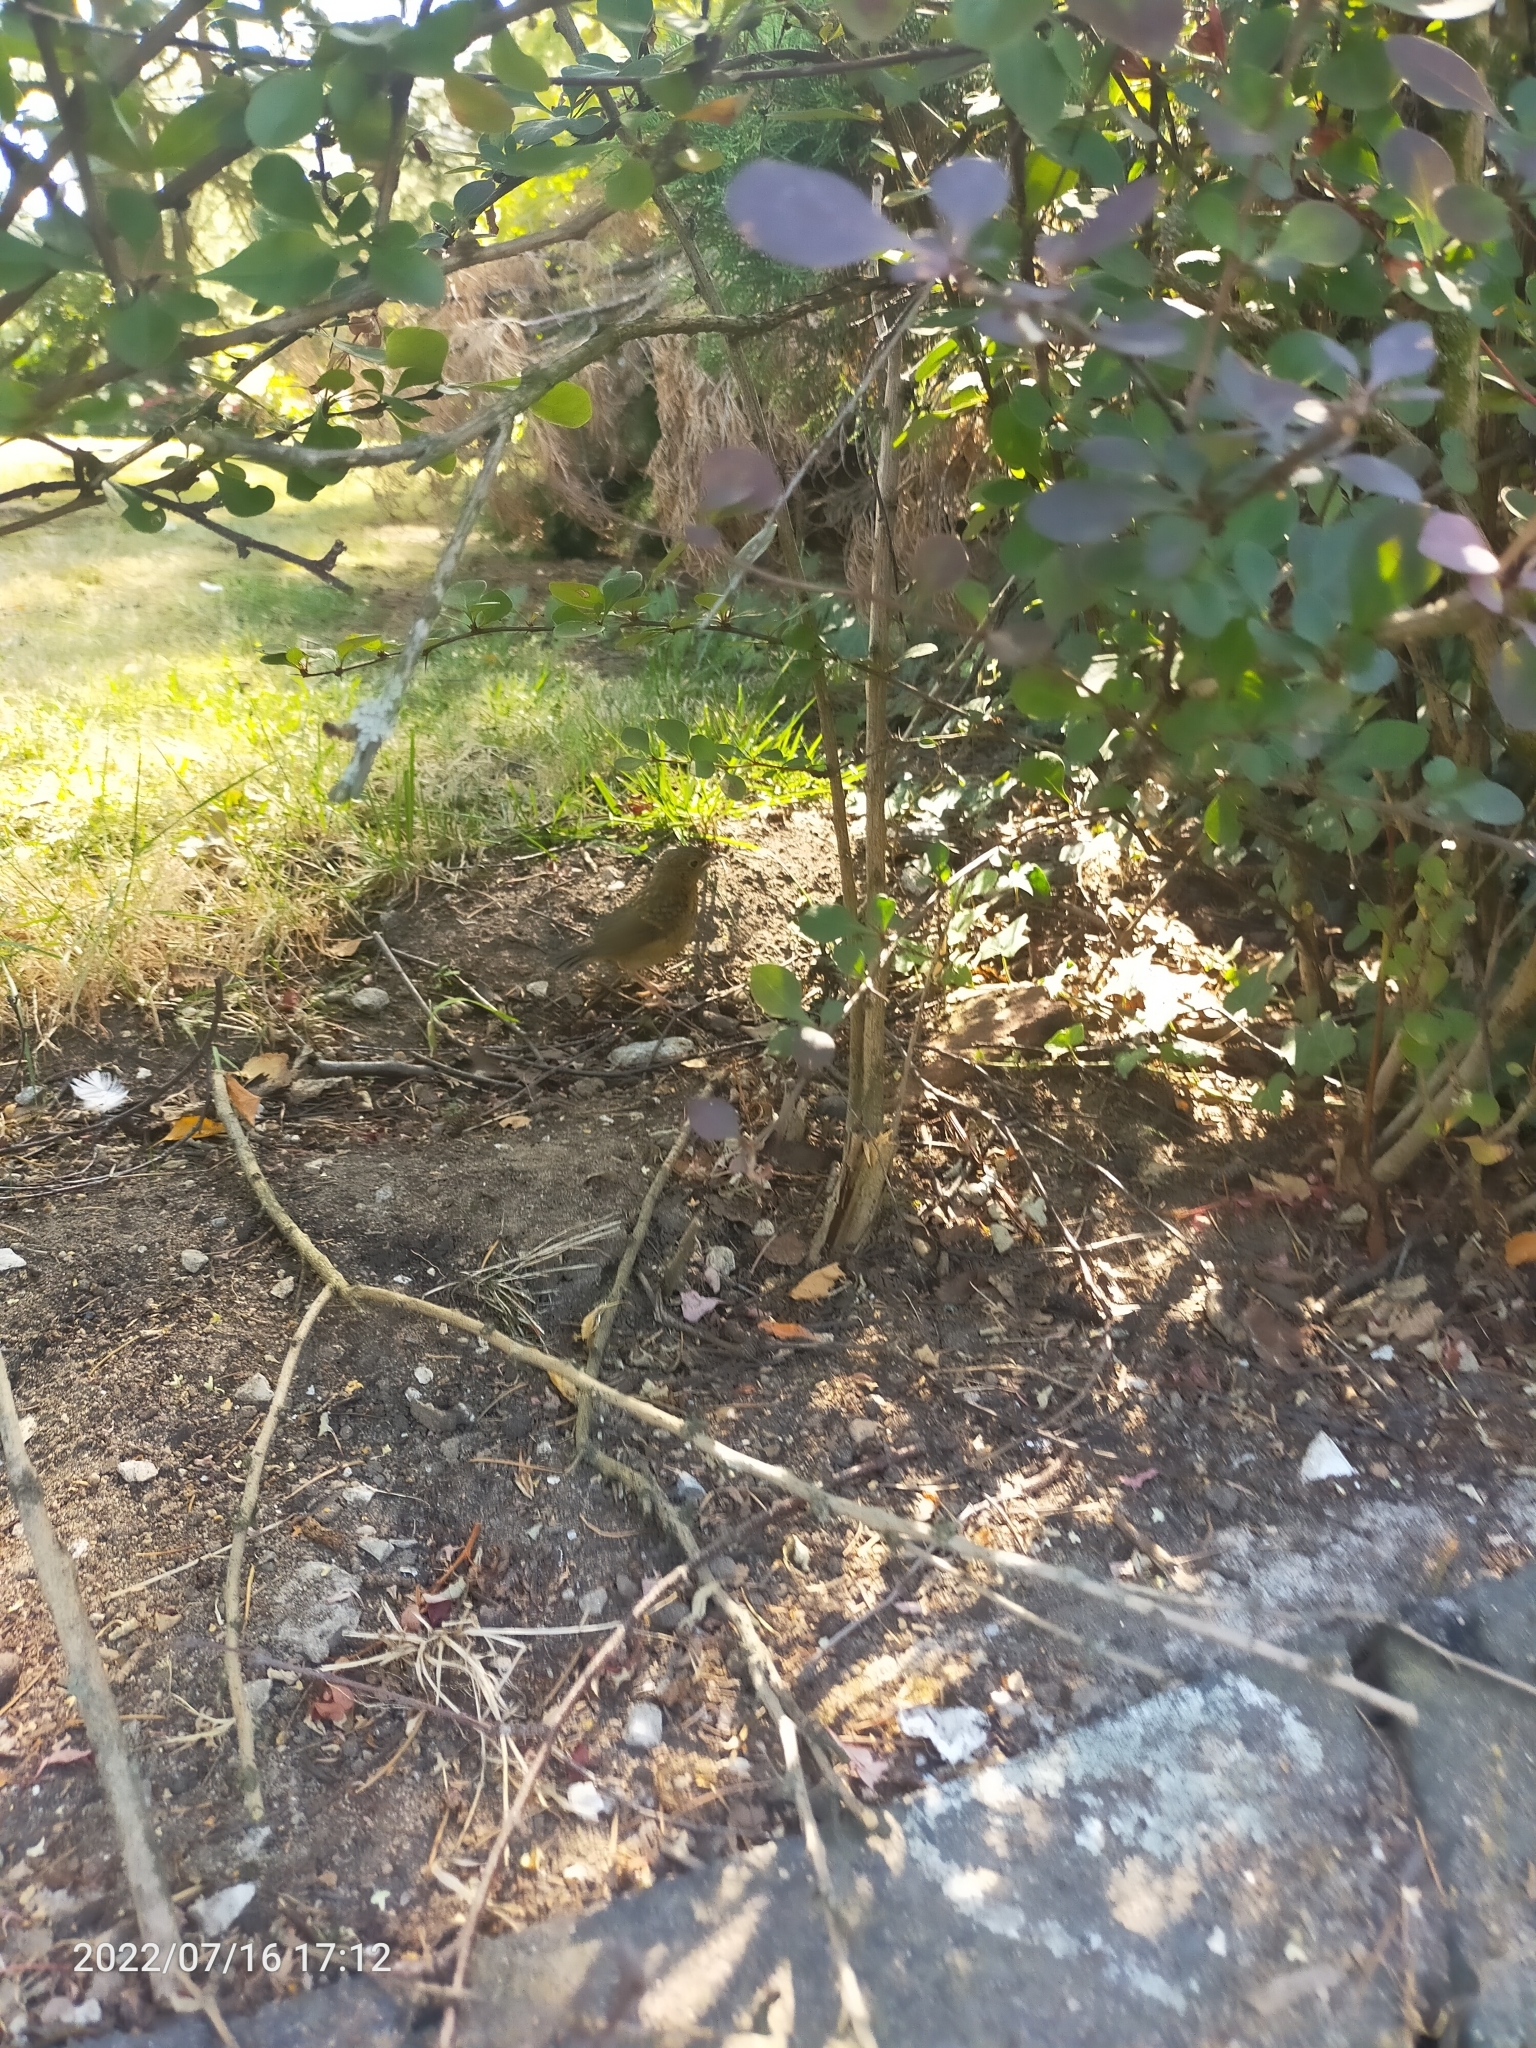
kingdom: Animalia
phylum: Chordata
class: Aves
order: Passeriformes
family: Muscicapidae
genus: Erithacus
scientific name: Erithacus rubecula
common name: European robin
